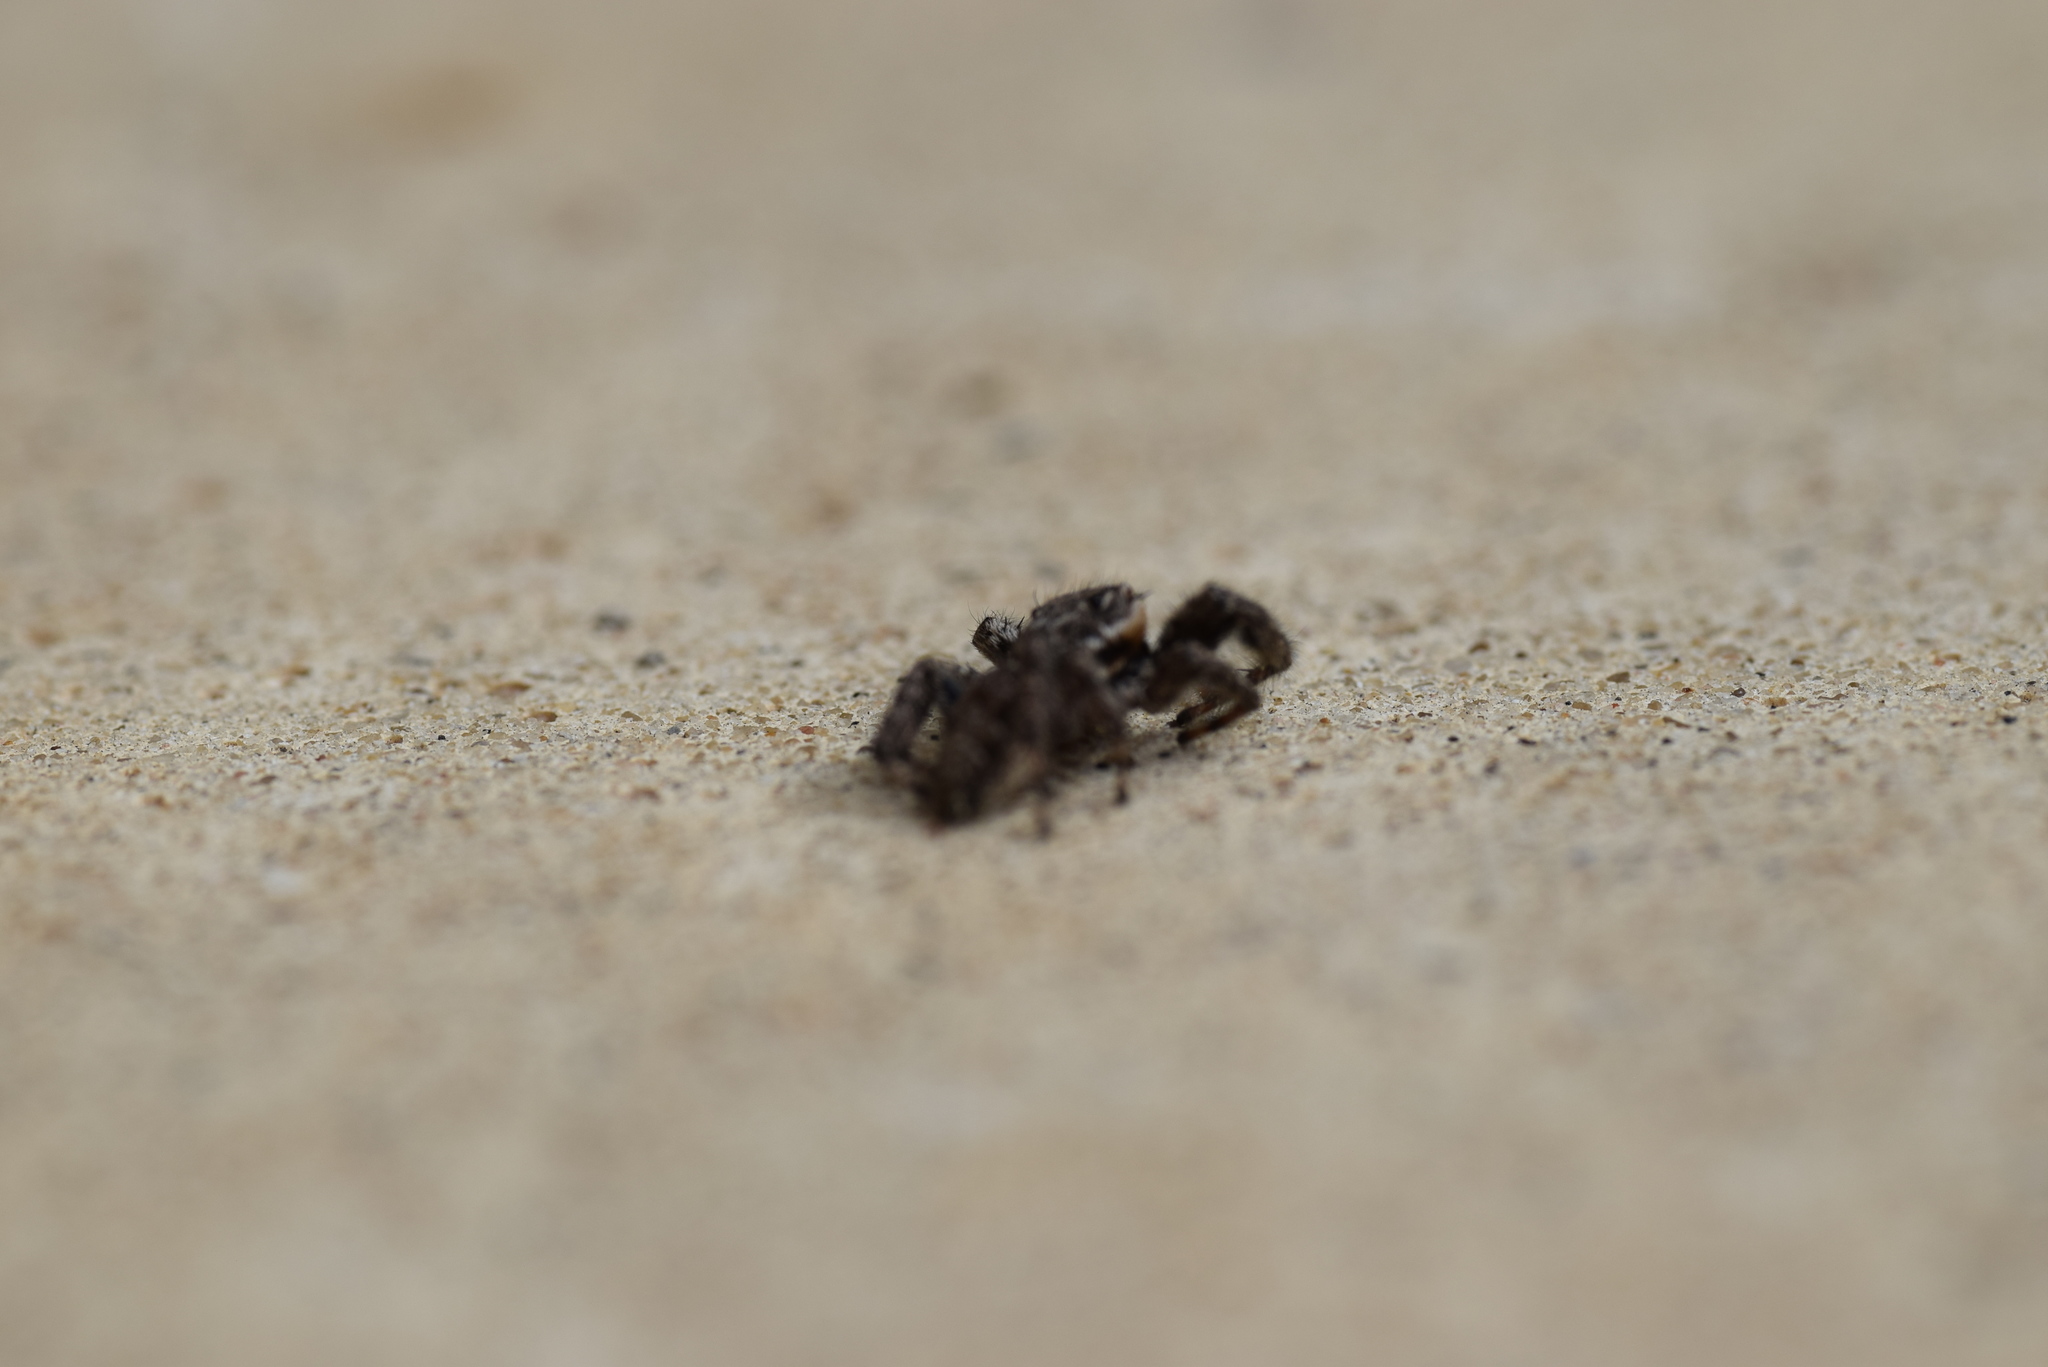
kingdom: Animalia
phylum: Arthropoda
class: Arachnida
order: Araneae
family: Salticidae
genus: Platycryptus
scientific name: Platycryptus undatus
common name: Tan jumping spider
